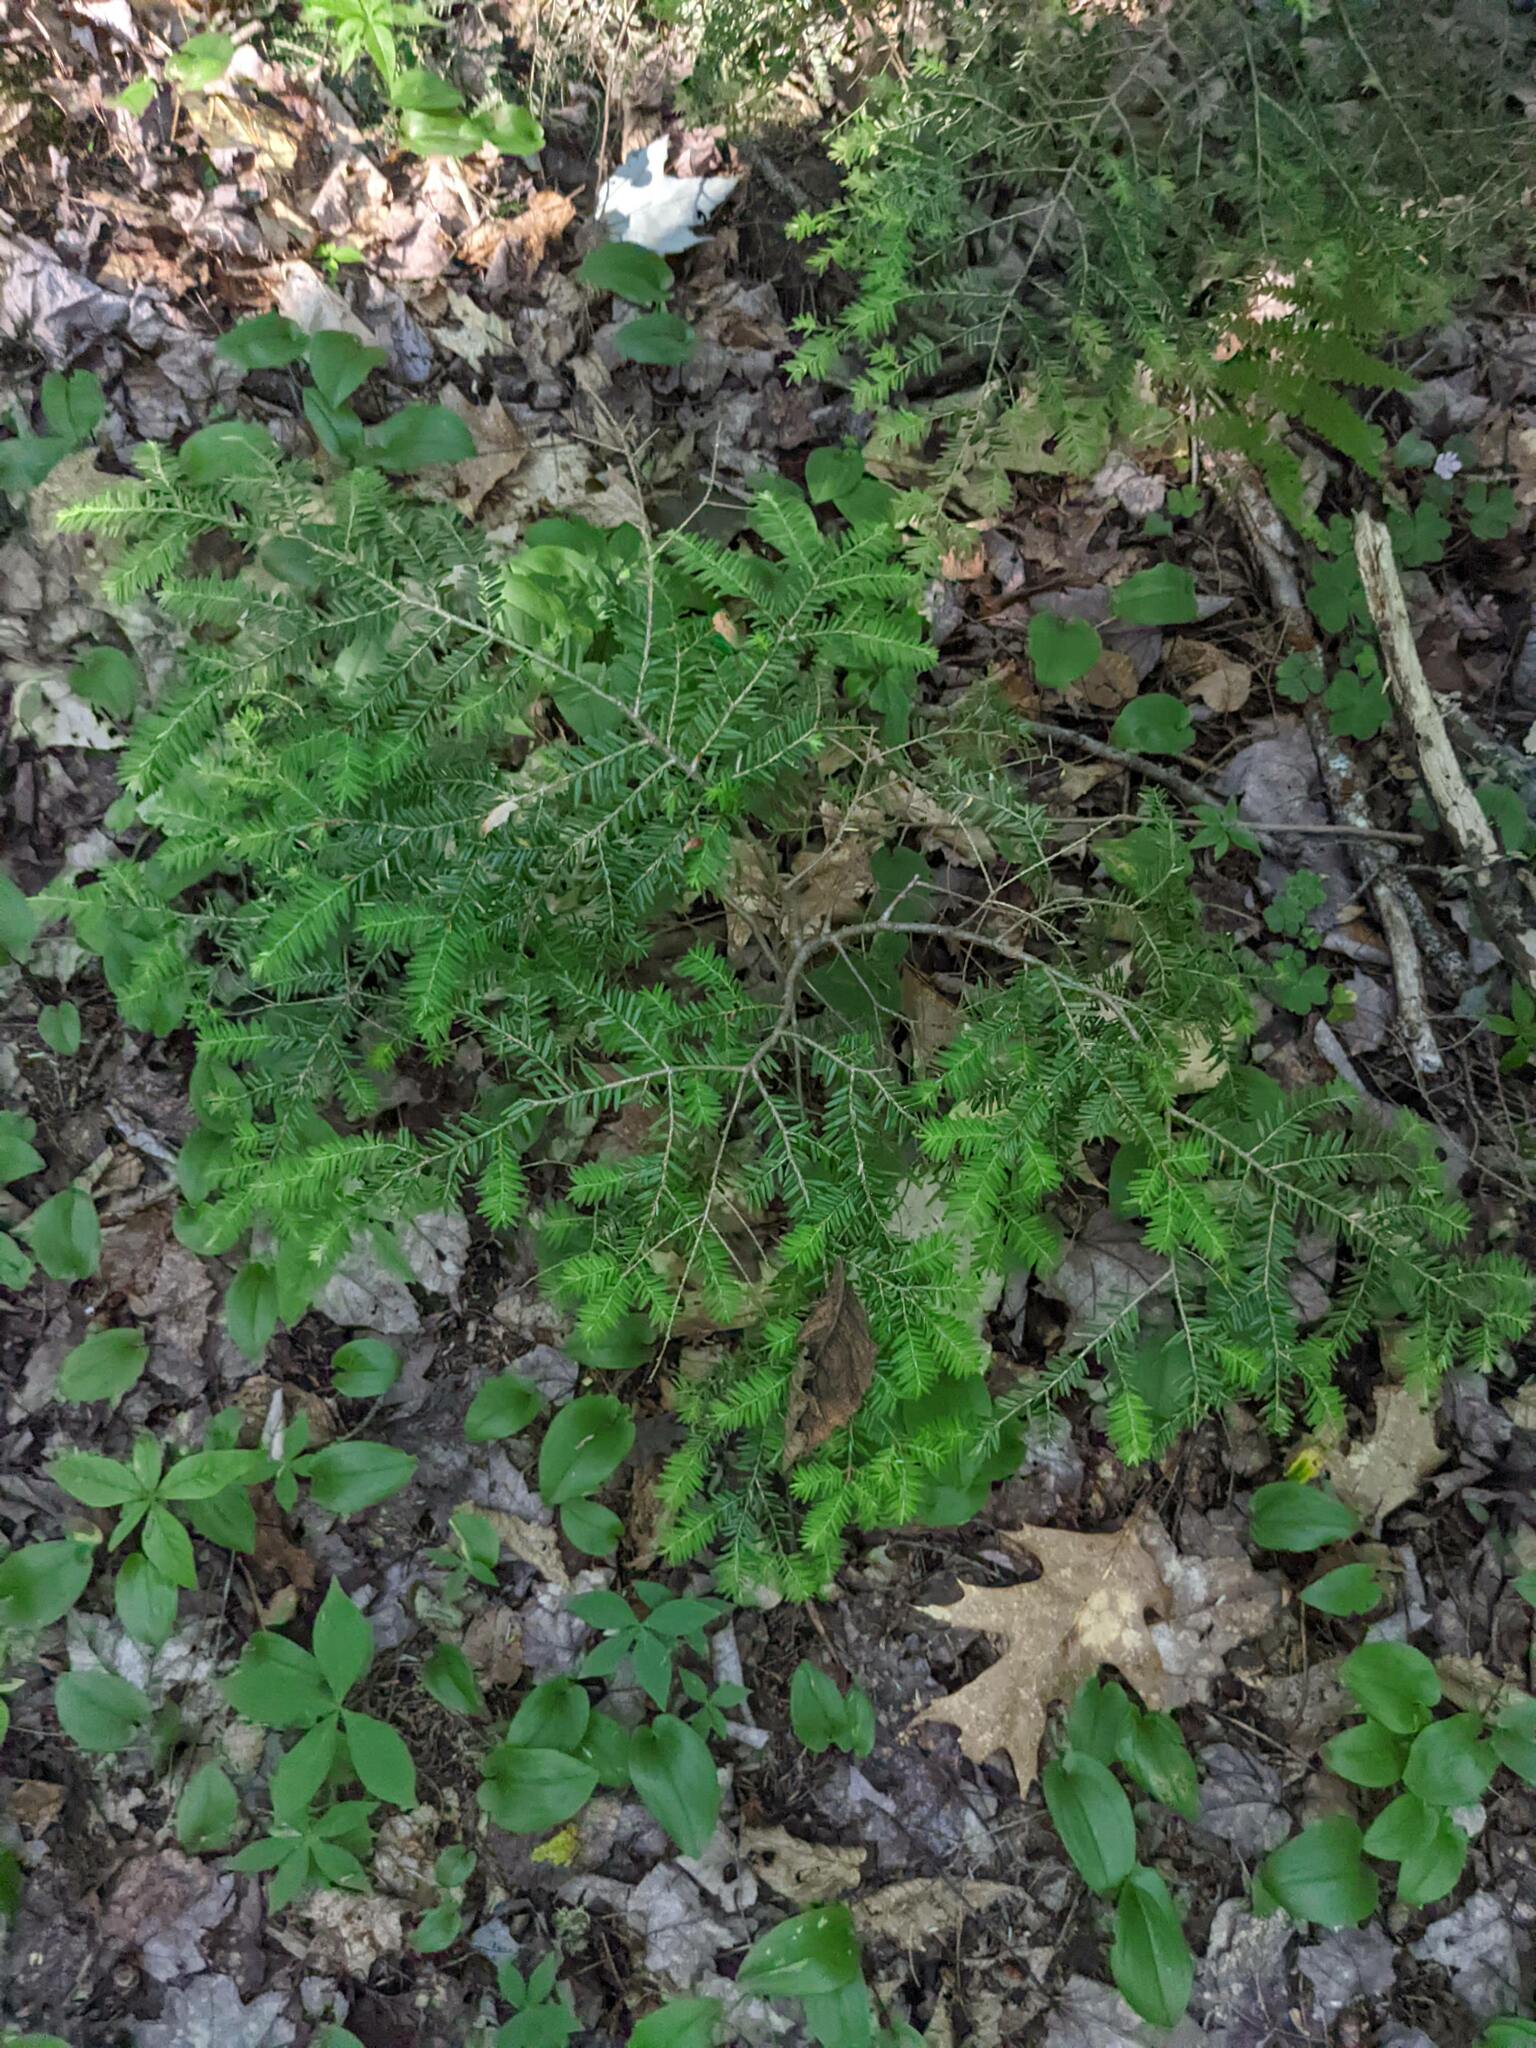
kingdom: Plantae
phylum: Tracheophyta
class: Pinopsida
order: Pinales
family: Pinaceae
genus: Tsuga
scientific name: Tsuga canadensis
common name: Eastern hemlock
